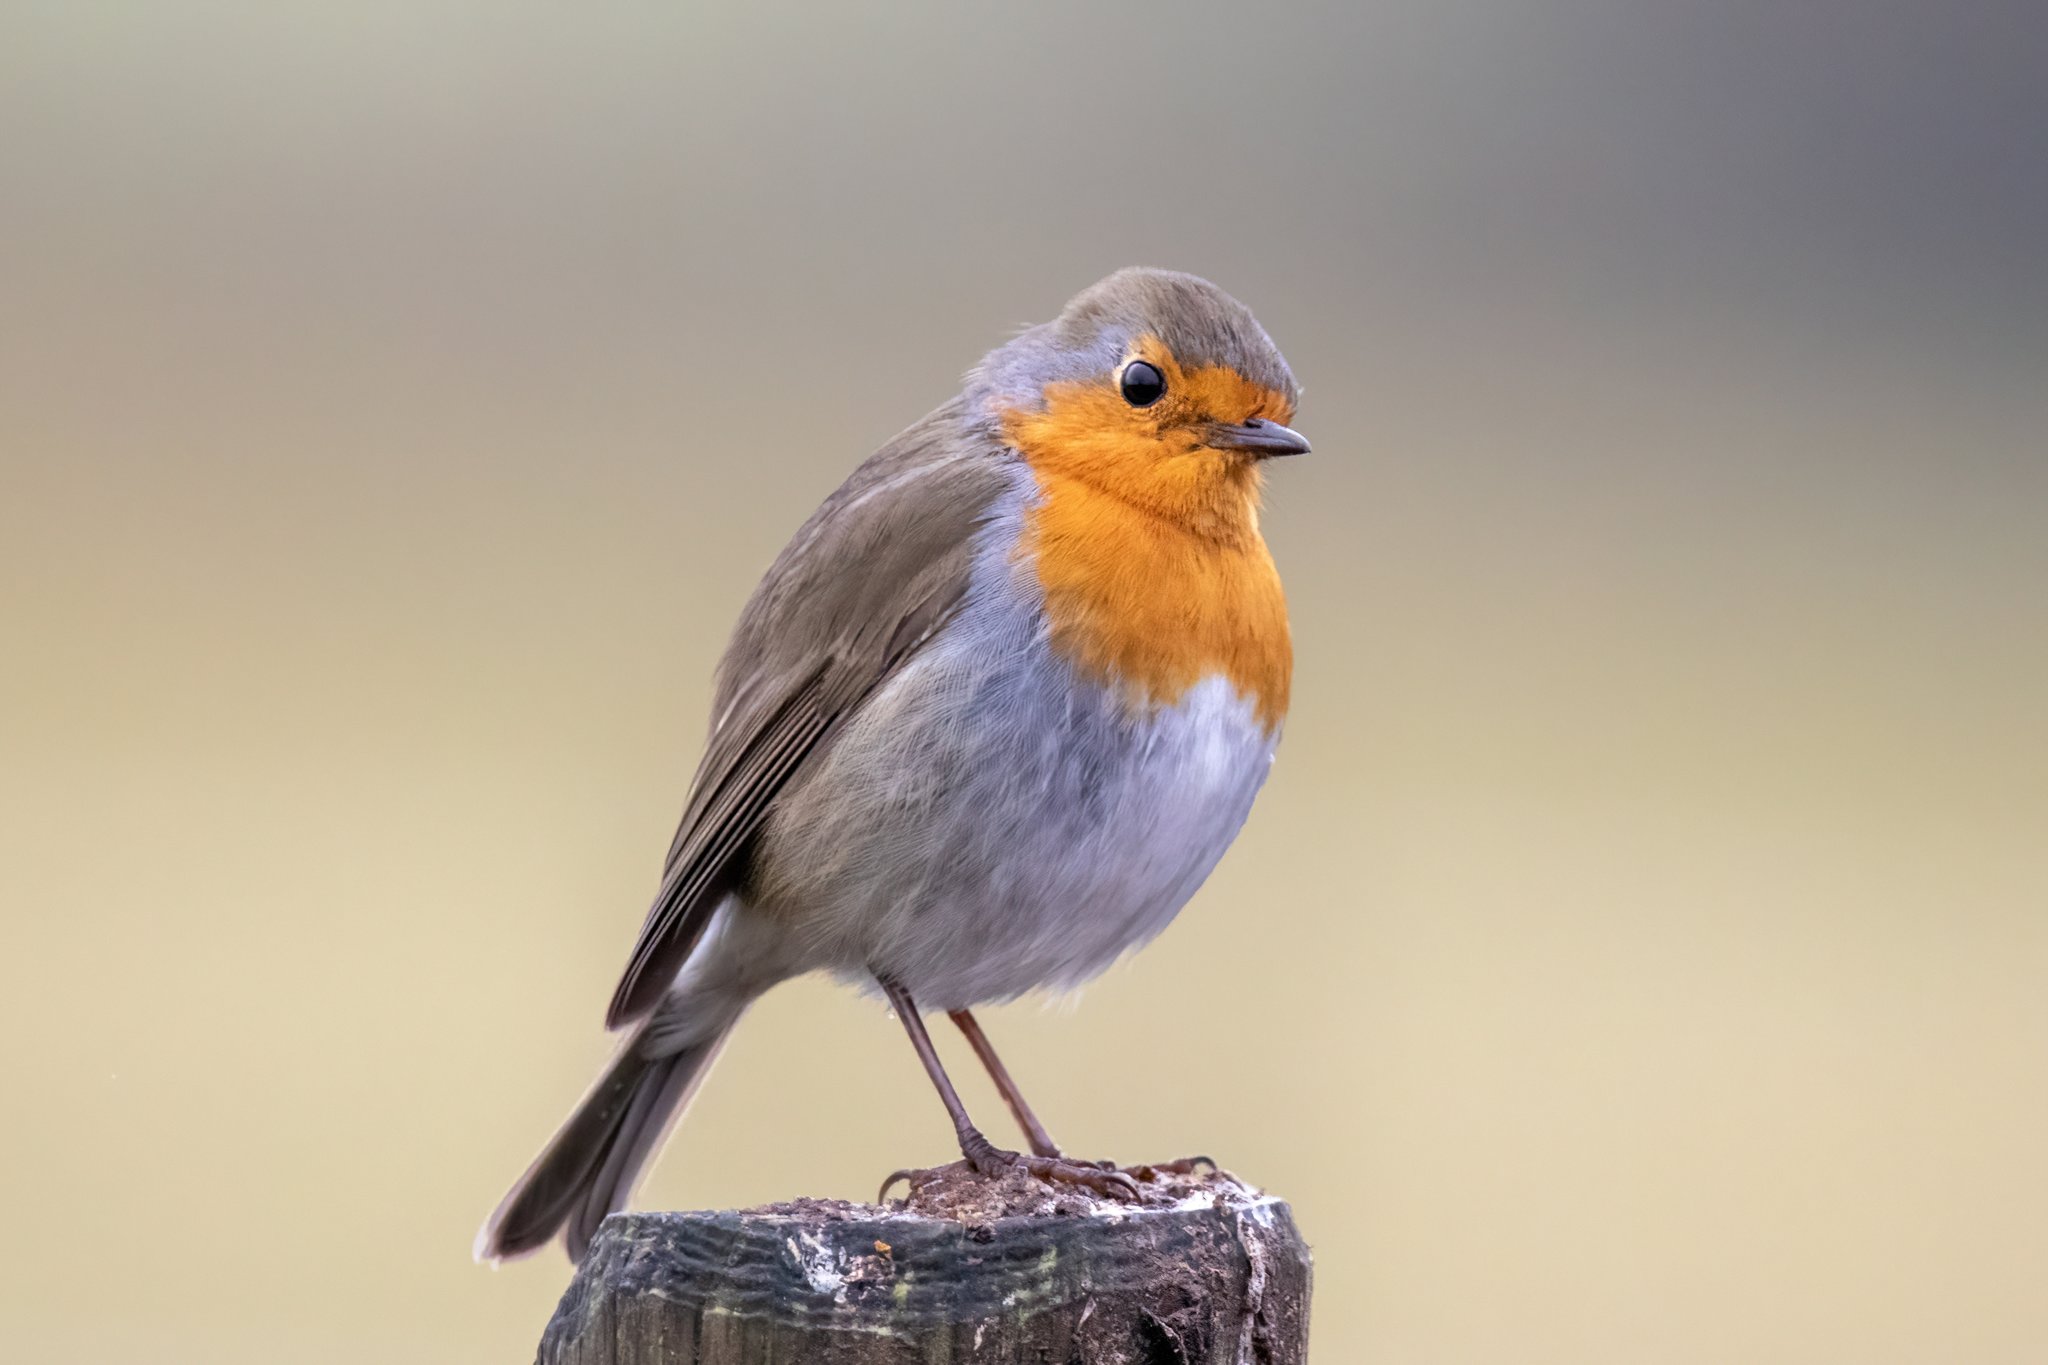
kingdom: Animalia
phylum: Chordata
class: Aves
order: Passeriformes
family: Muscicapidae
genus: Erithacus
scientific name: Erithacus rubecula
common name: European robin
